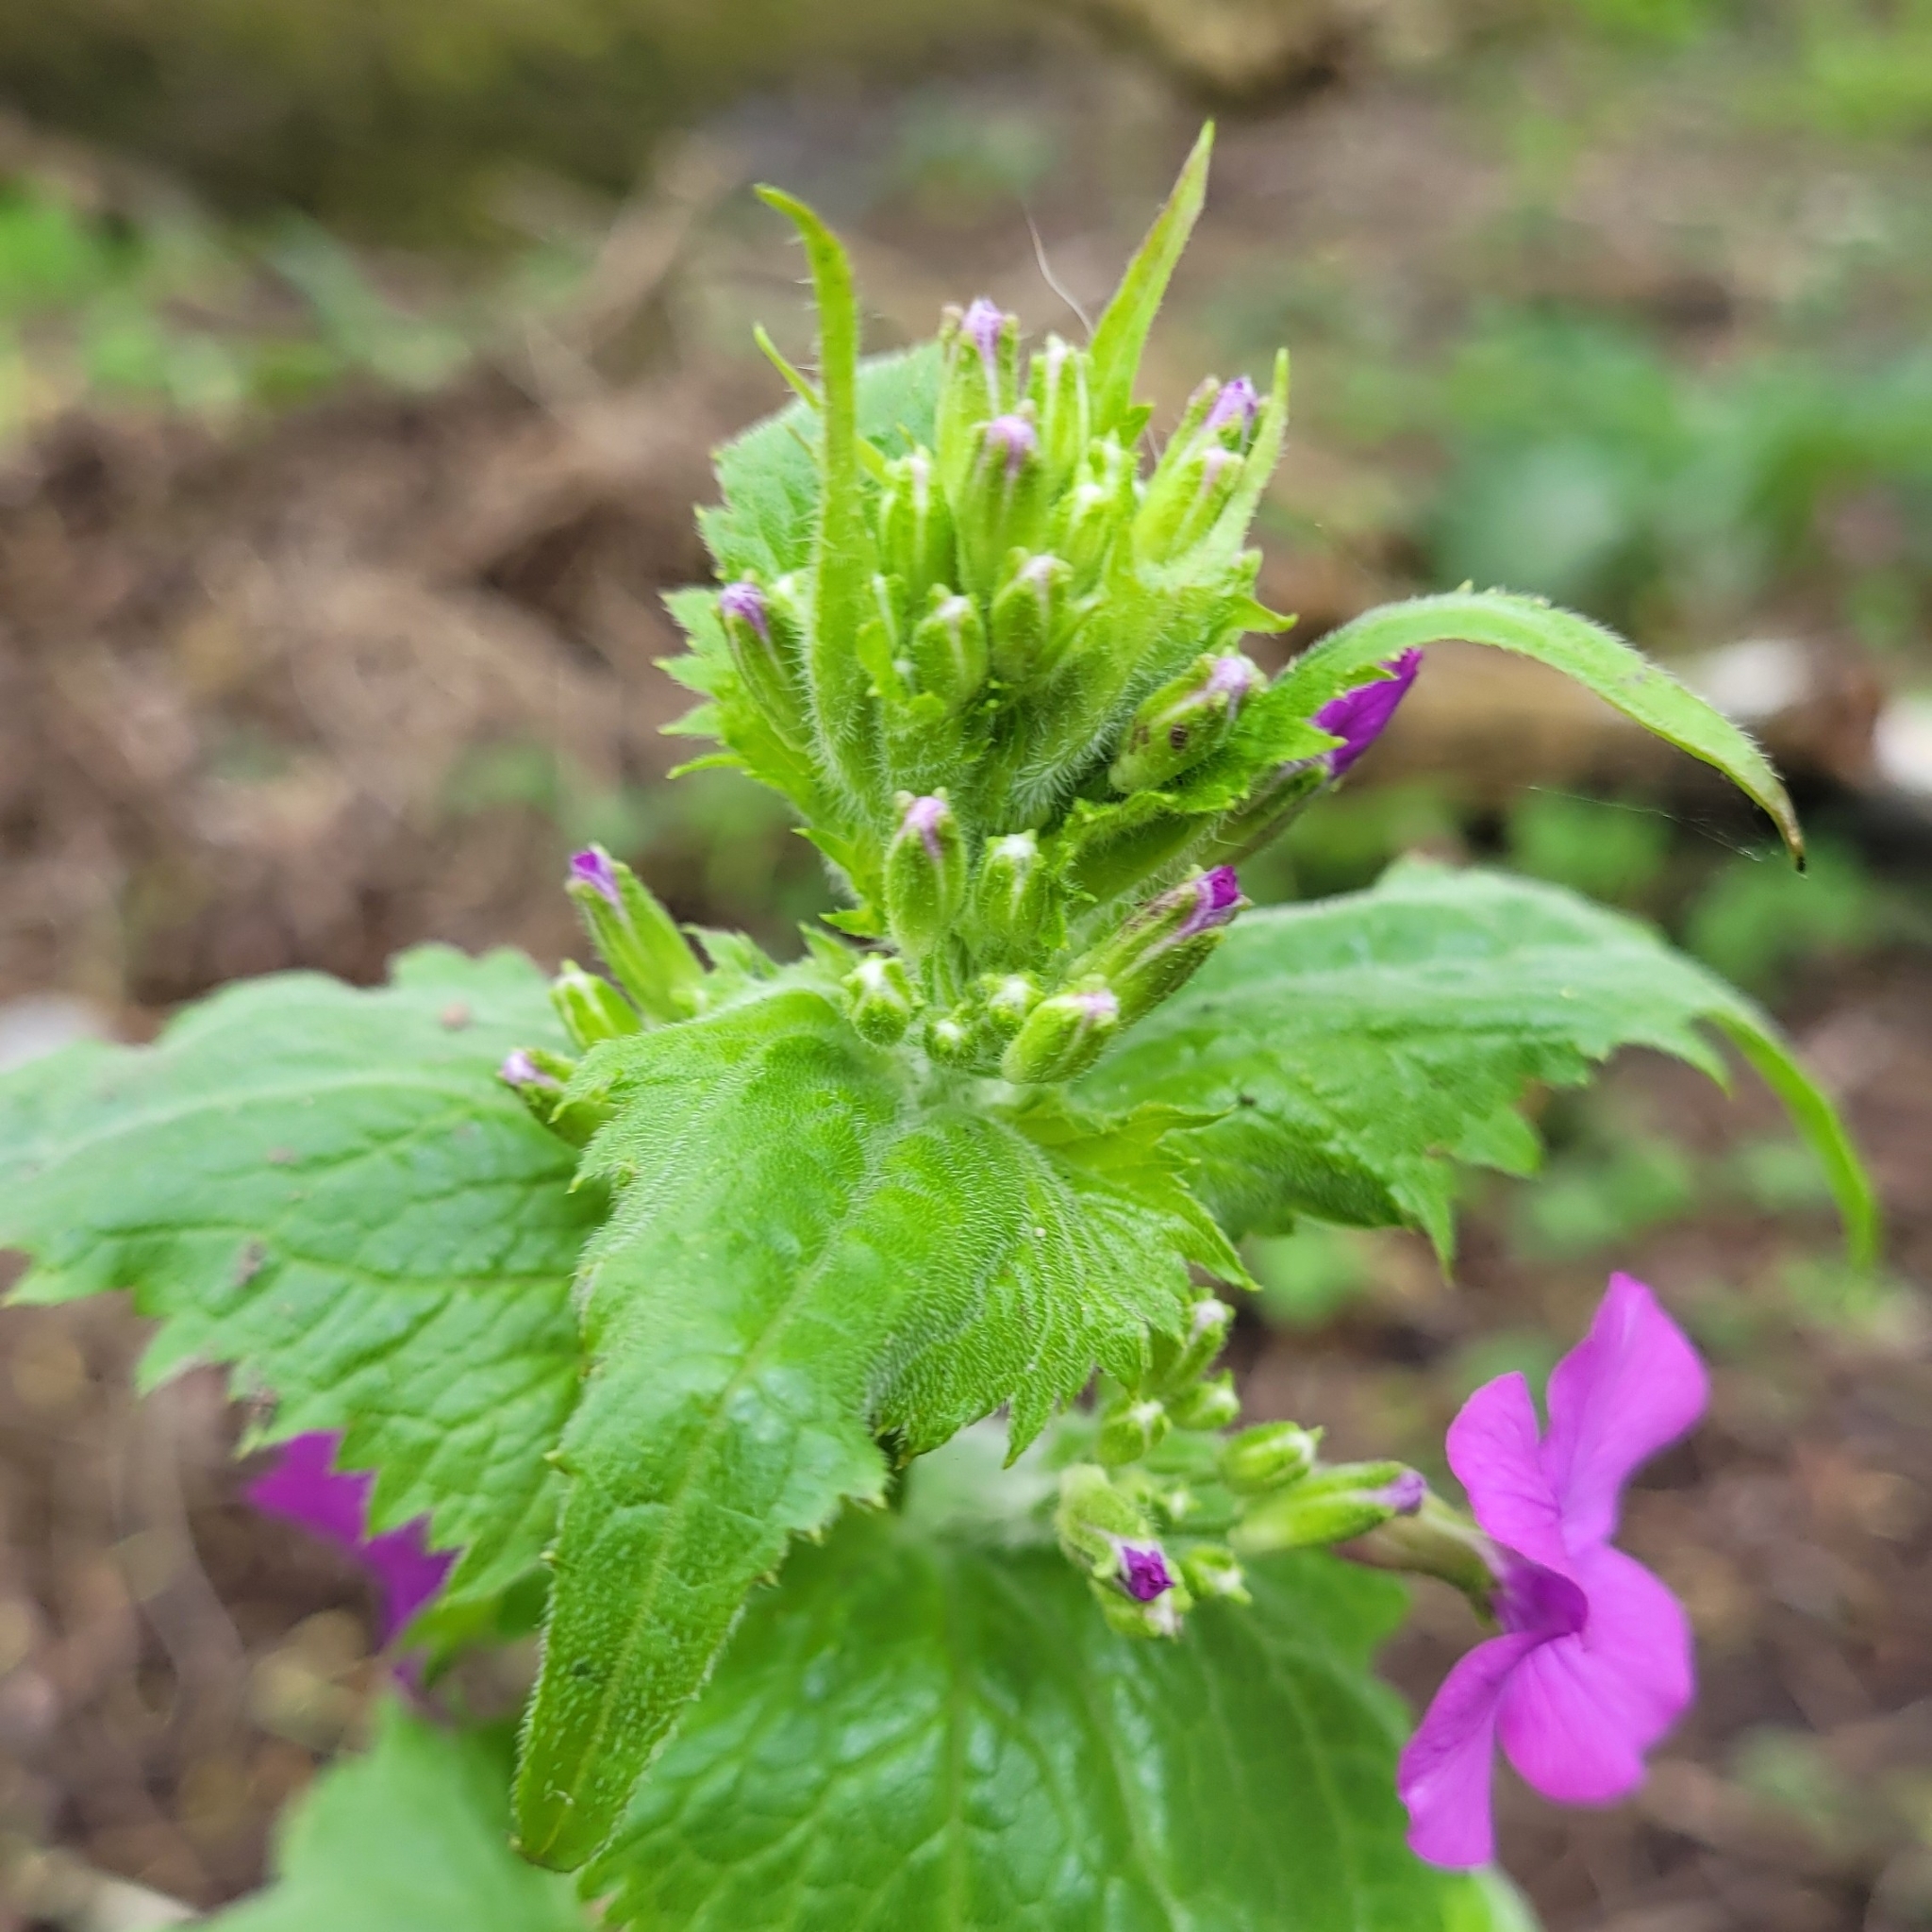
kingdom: Plantae
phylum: Tracheophyta
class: Magnoliopsida
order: Brassicales
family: Brassicaceae
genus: Lunaria
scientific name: Lunaria annua
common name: Honesty
